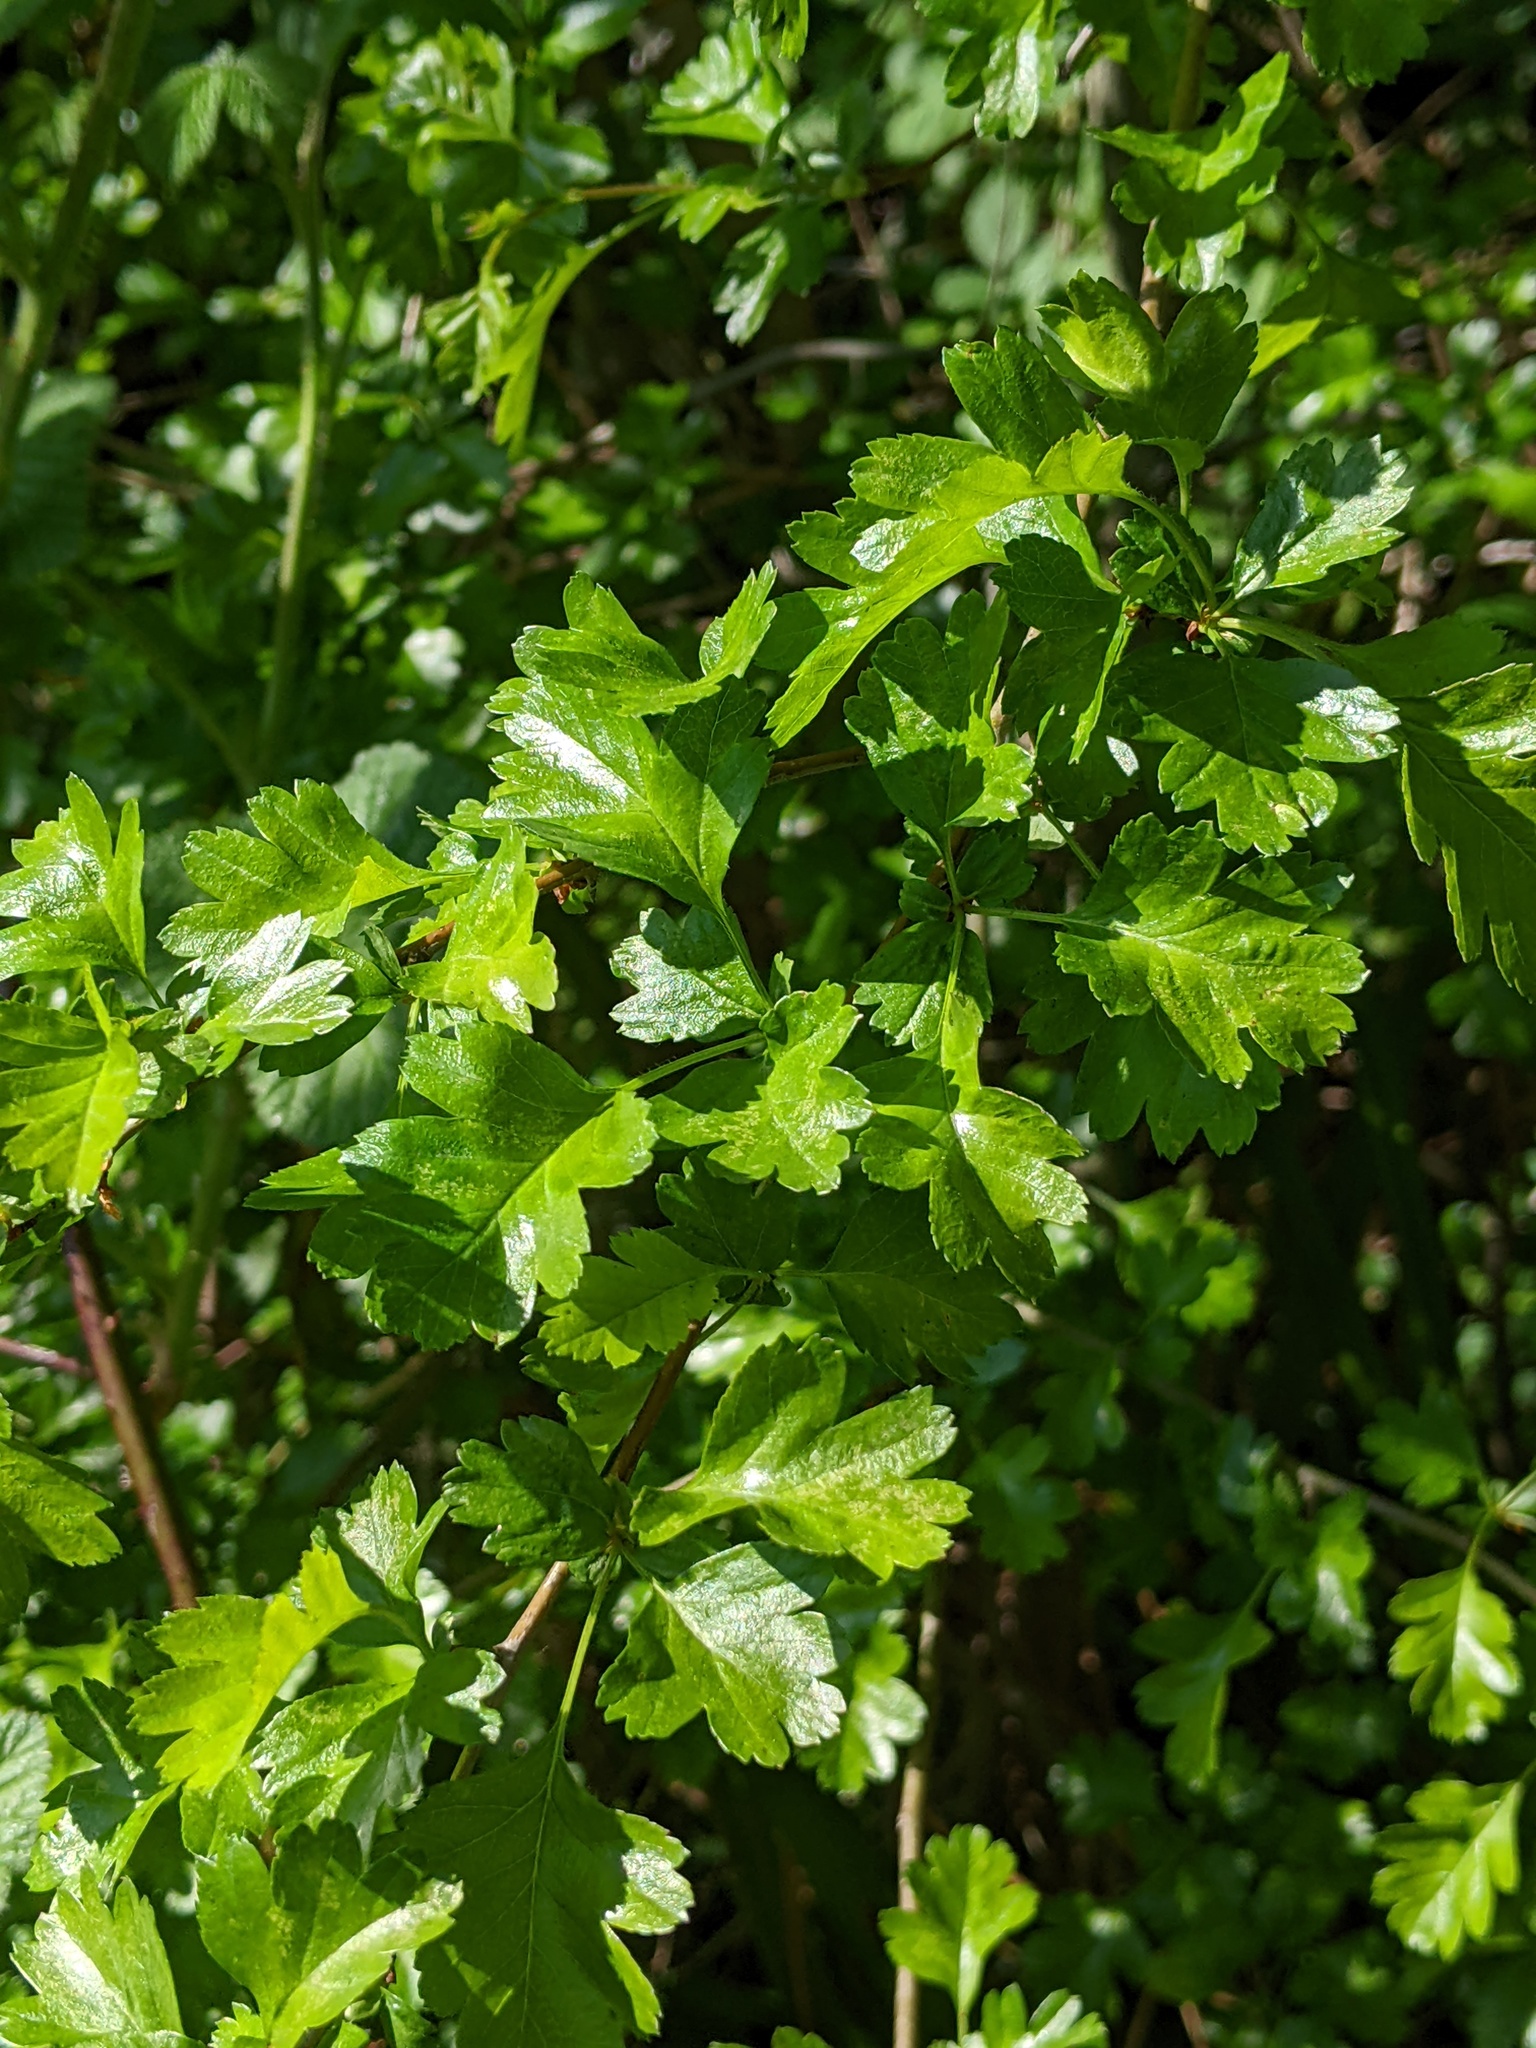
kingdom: Plantae
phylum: Tracheophyta
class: Magnoliopsida
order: Rosales
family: Rosaceae
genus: Crataegus
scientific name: Crataegus monogyna
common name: Hawthorn
